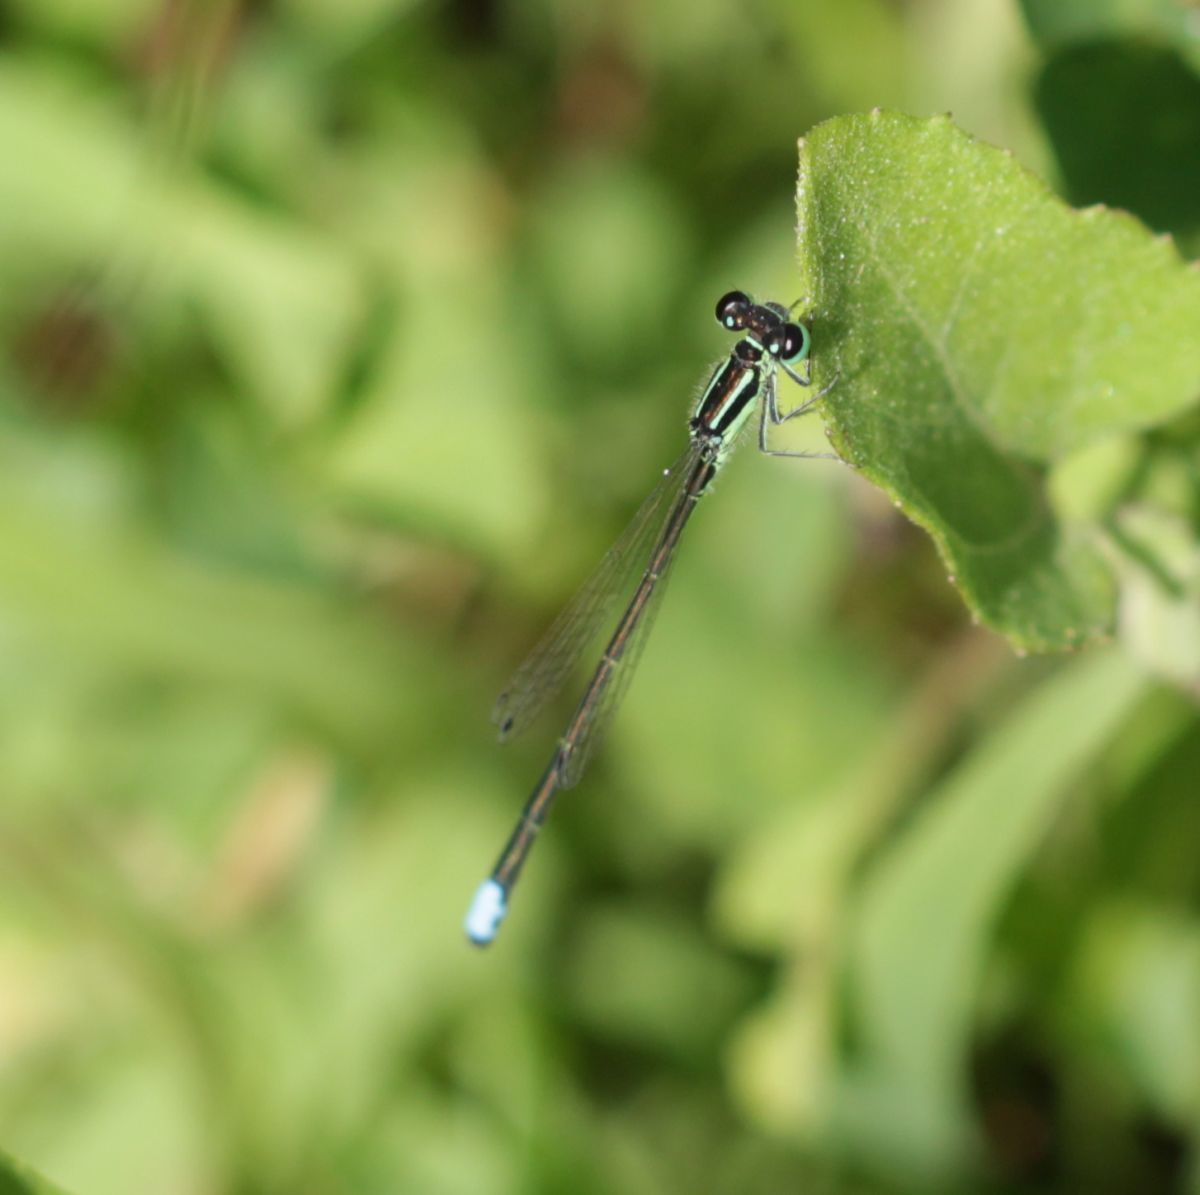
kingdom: Animalia
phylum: Arthropoda
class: Insecta
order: Odonata
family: Coenagrionidae
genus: Ischnura
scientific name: Ischnura verticalis
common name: Eastern forktail
